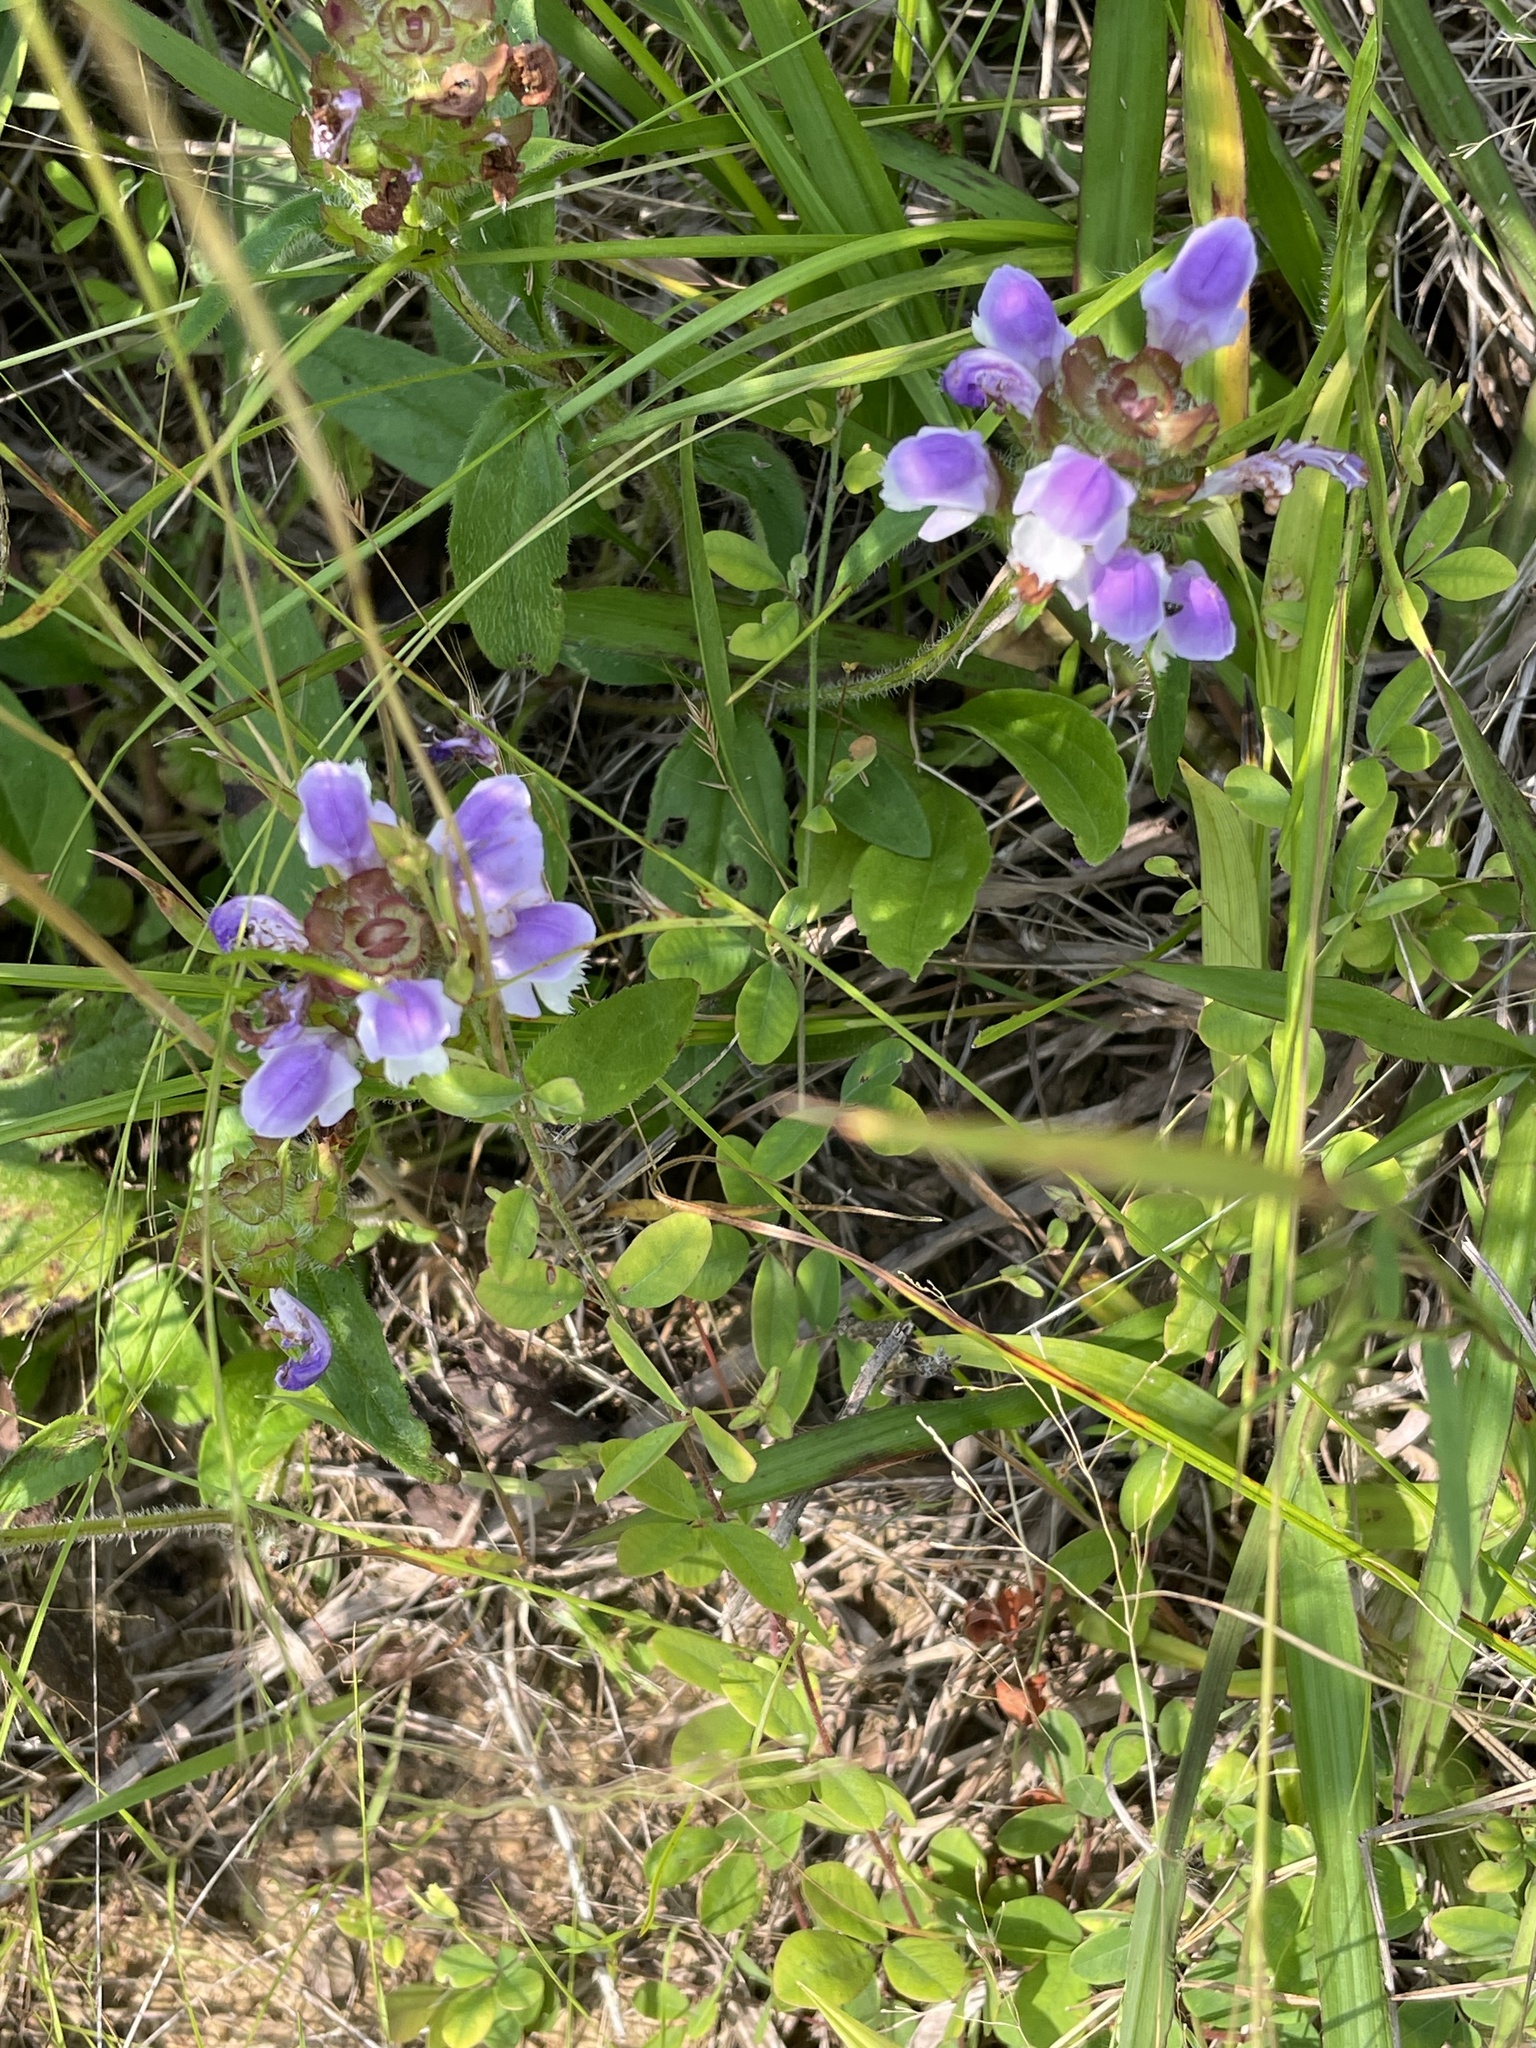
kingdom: Plantae
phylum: Tracheophyta
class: Magnoliopsida
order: Lamiales
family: Lamiaceae
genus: Prunella
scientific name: Prunella vulgaris
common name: Heal-all
